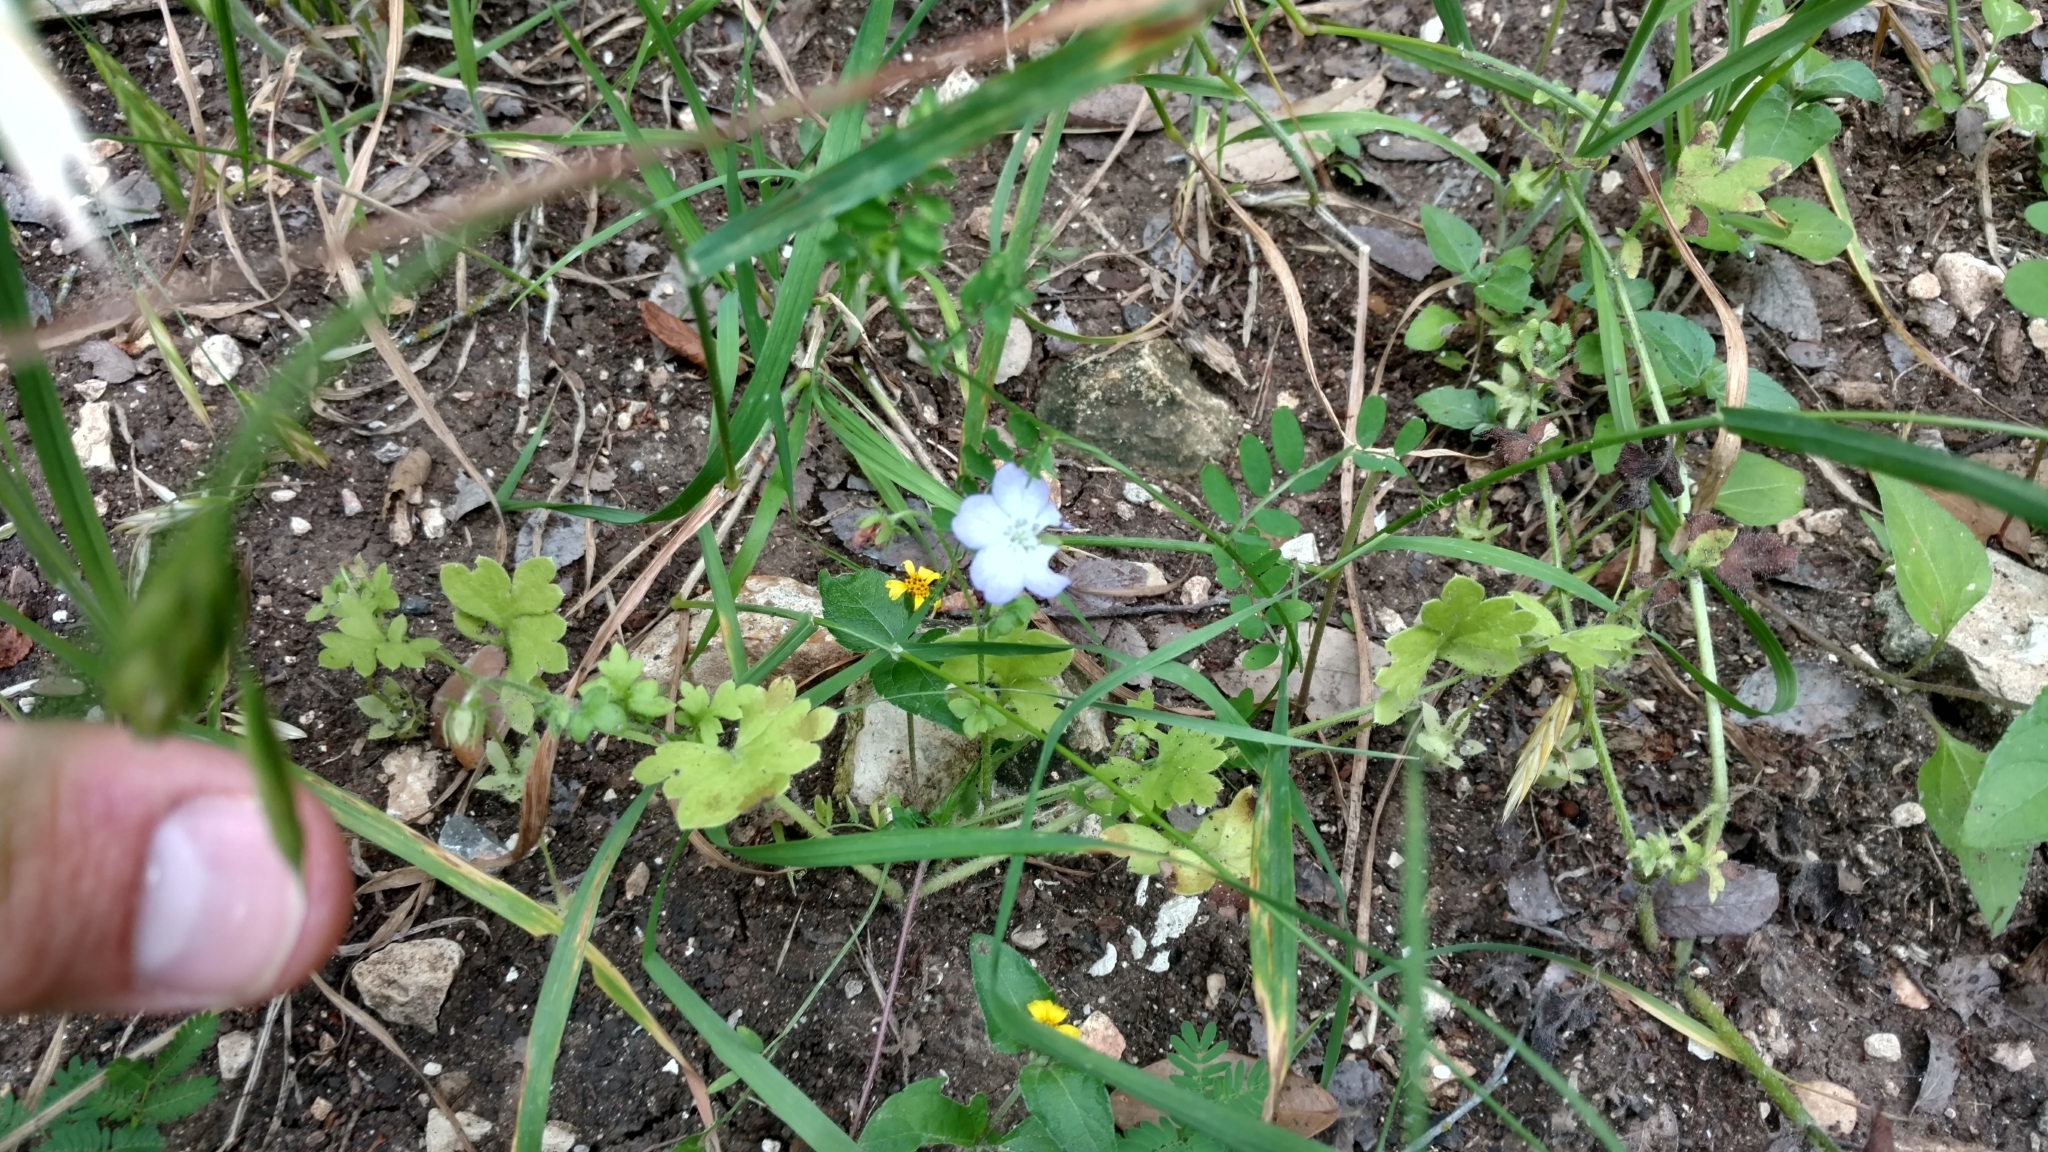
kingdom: Plantae
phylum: Tracheophyta
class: Magnoliopsida
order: Boraginales
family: Hydrophyllaceae
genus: Nemophila
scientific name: Nemophila phacelioides
